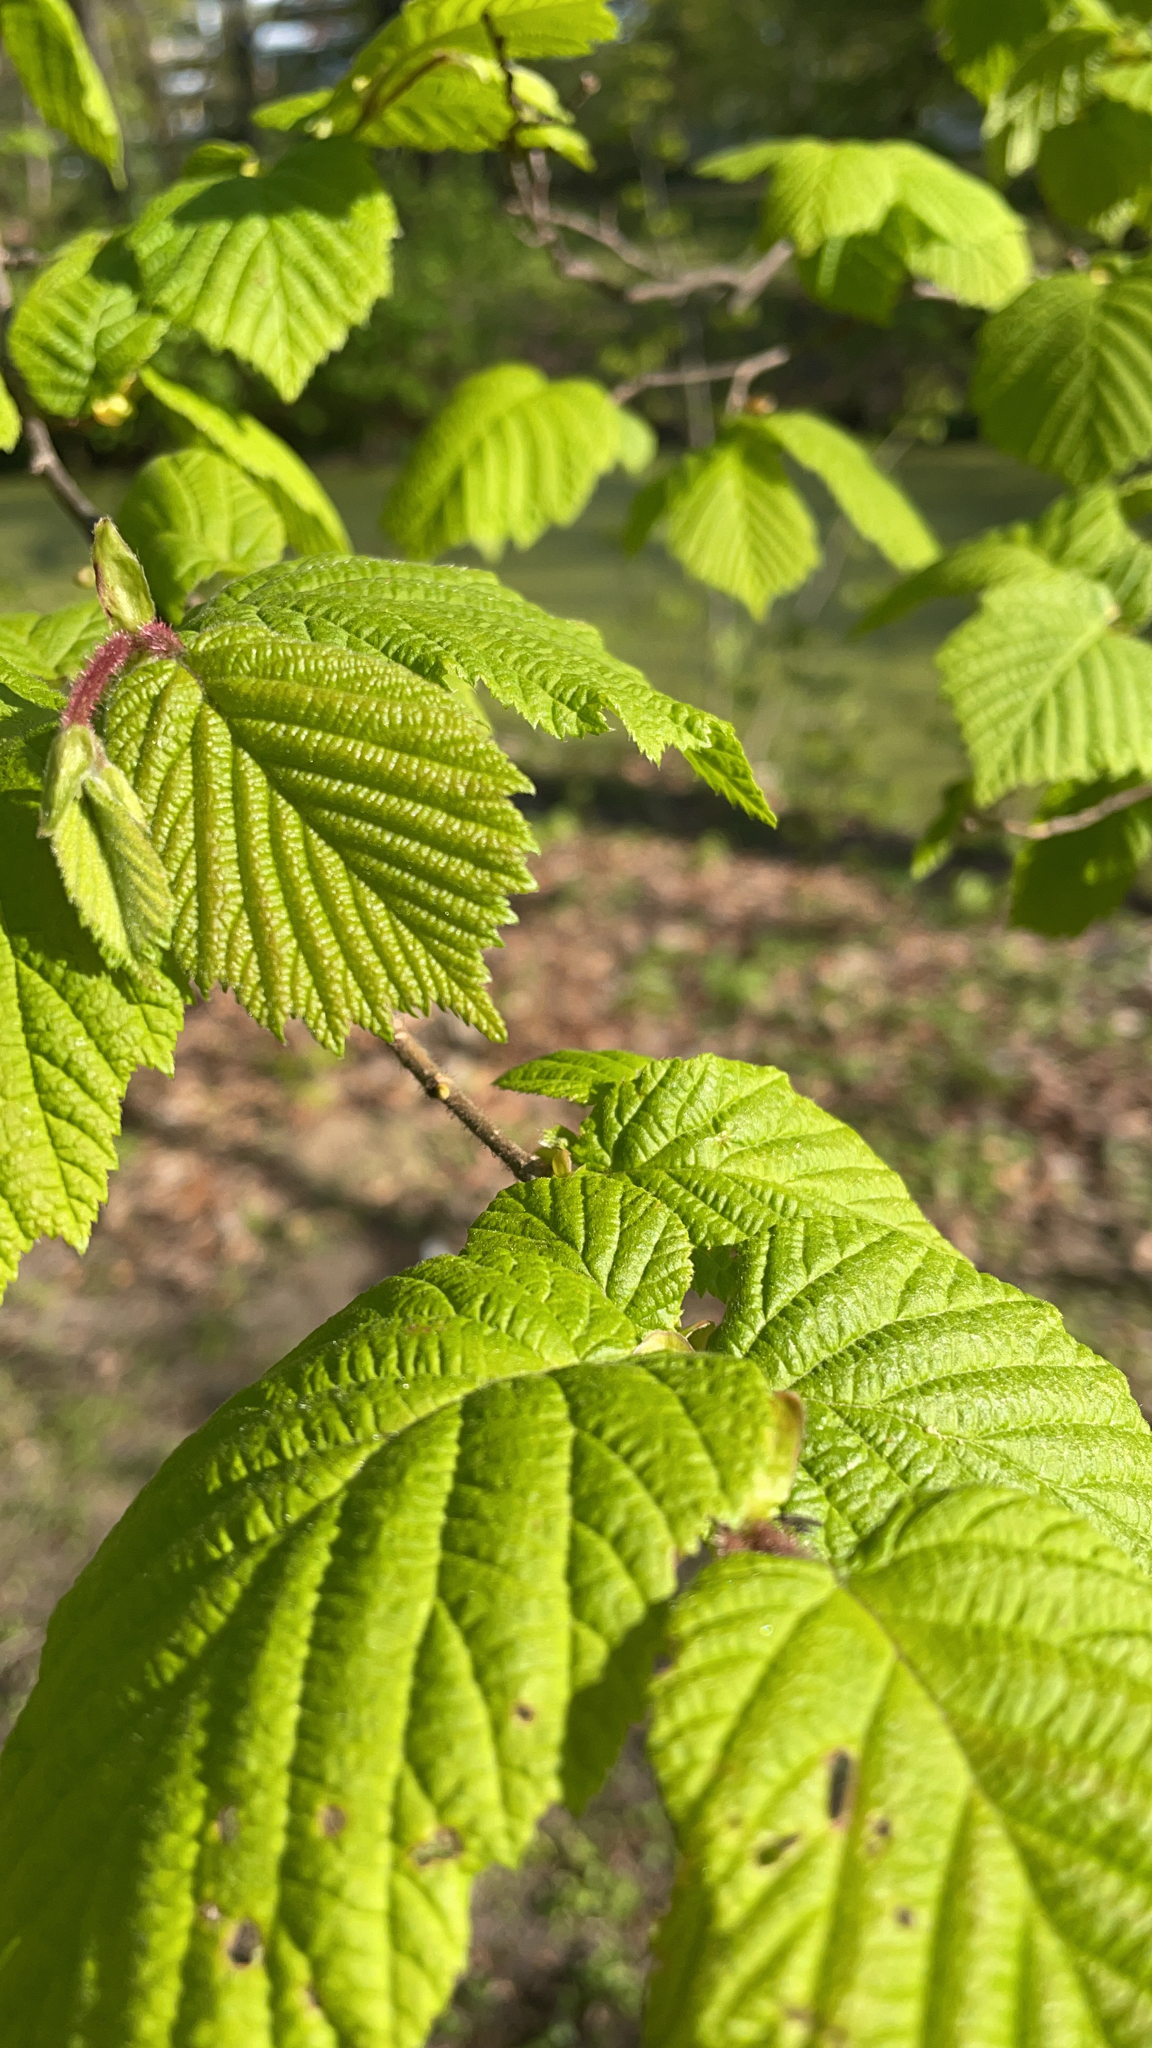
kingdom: Plantae
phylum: Tracheophyta
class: Magnoliopsida
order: Fagales
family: Betulaceae
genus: Corylus
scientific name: Corylus avellana
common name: European hazel
